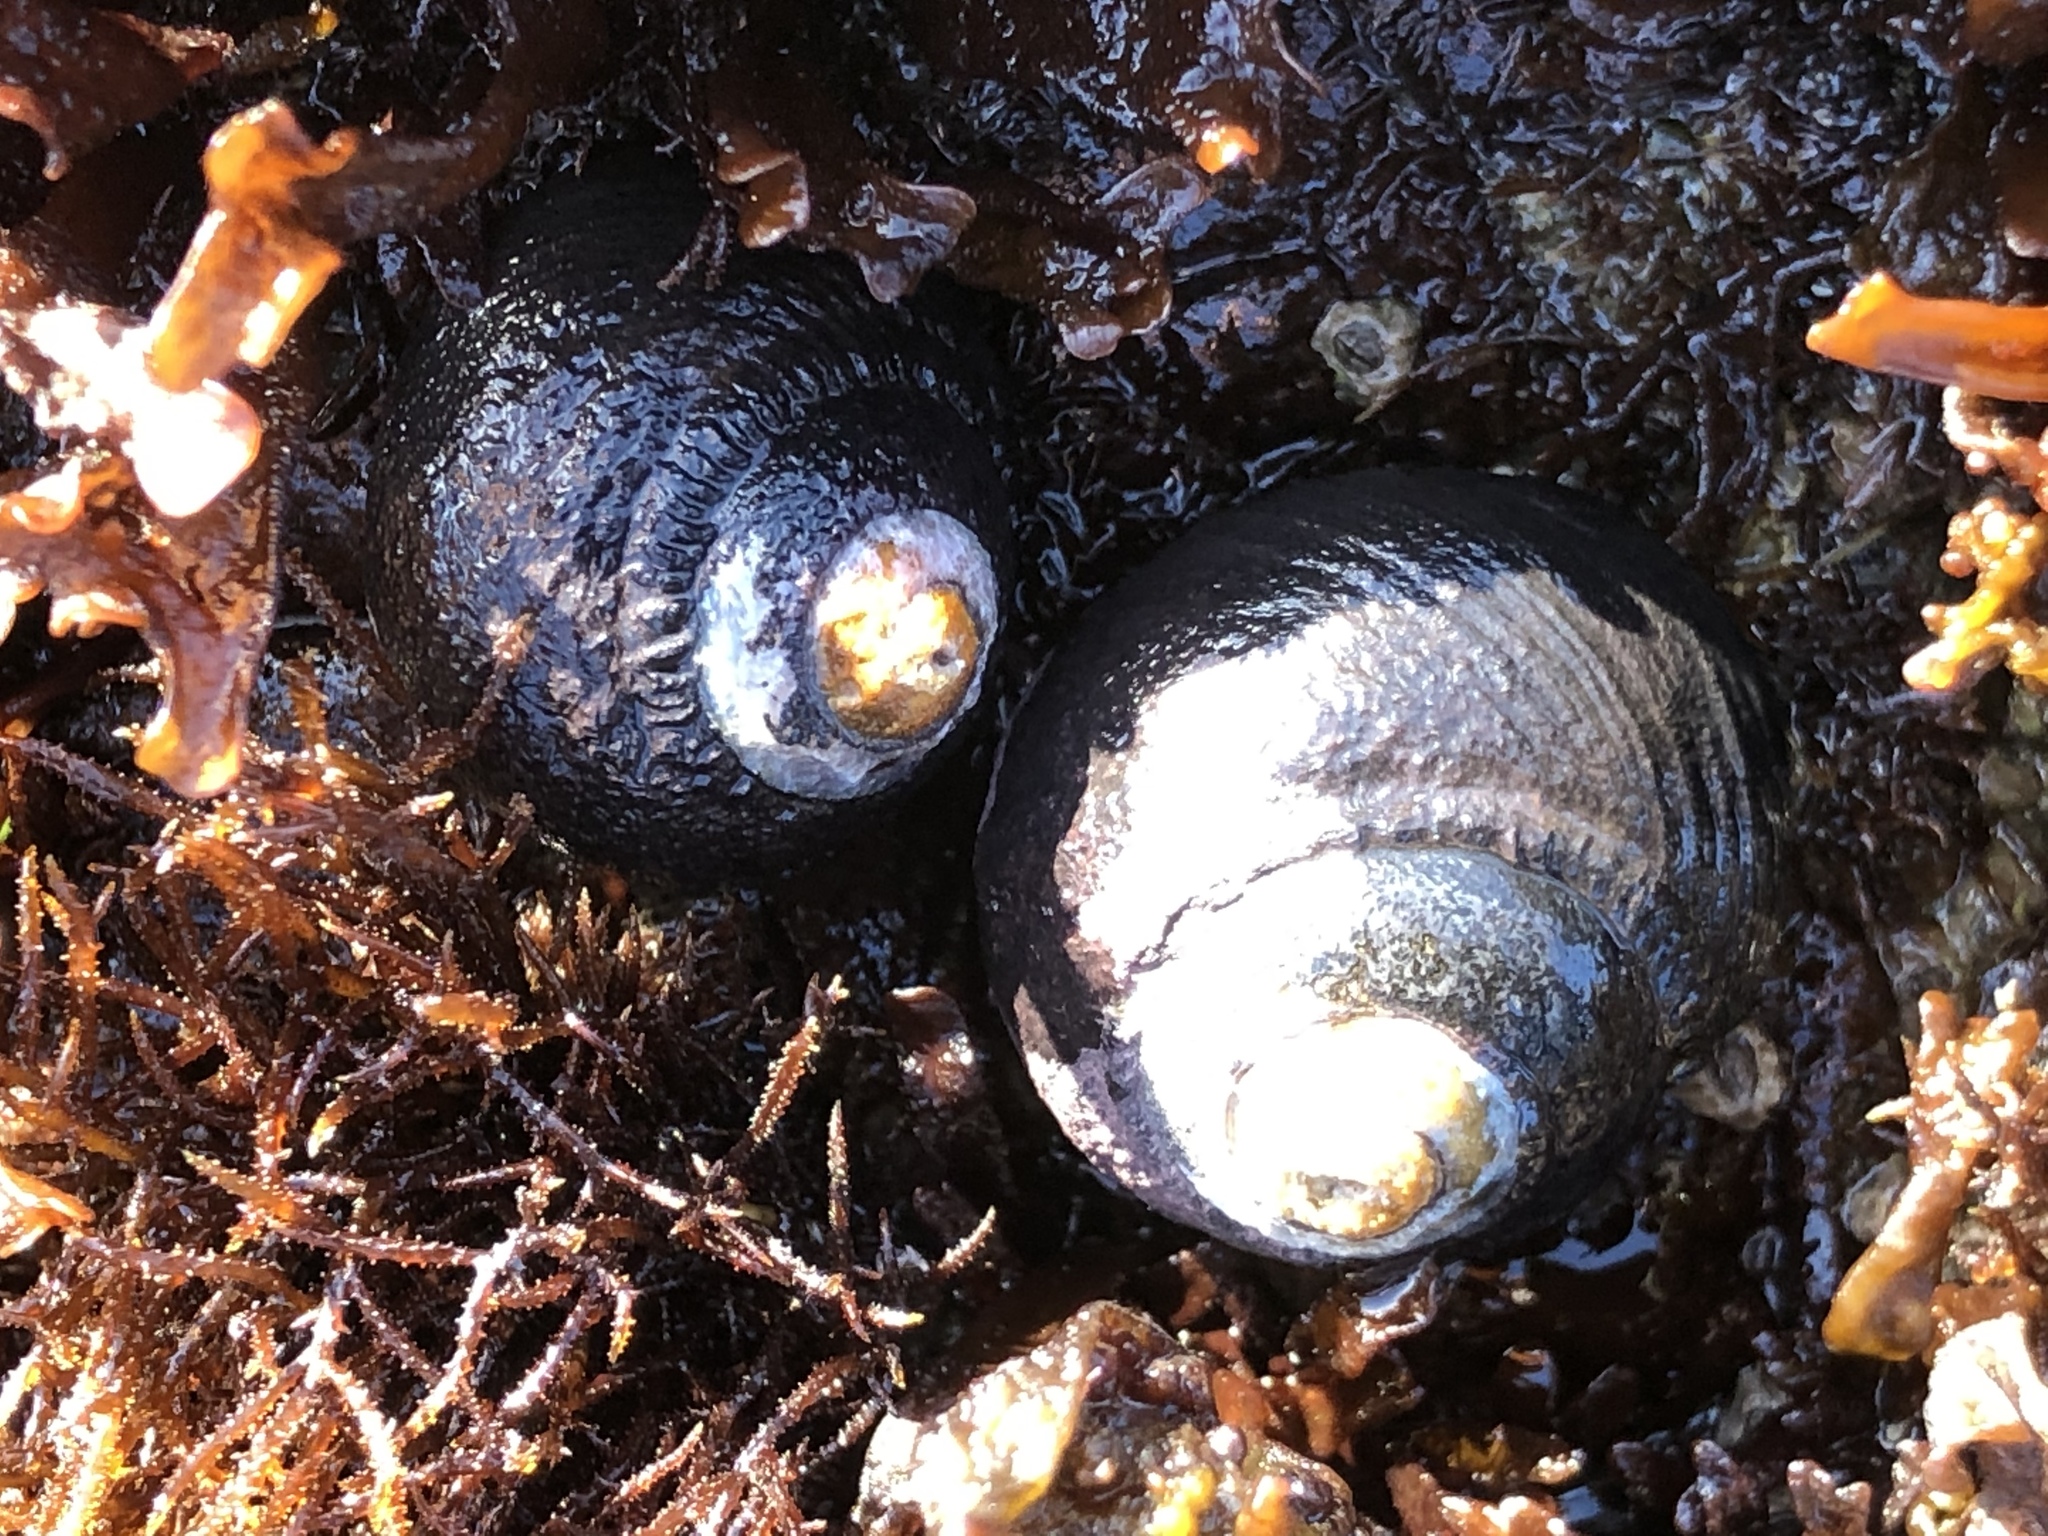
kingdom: Animalia
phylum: Mollusca
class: Gastropoda
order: Trochida
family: Tegulidae
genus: Tegula
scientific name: Tegula funebralis
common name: Black tegula
